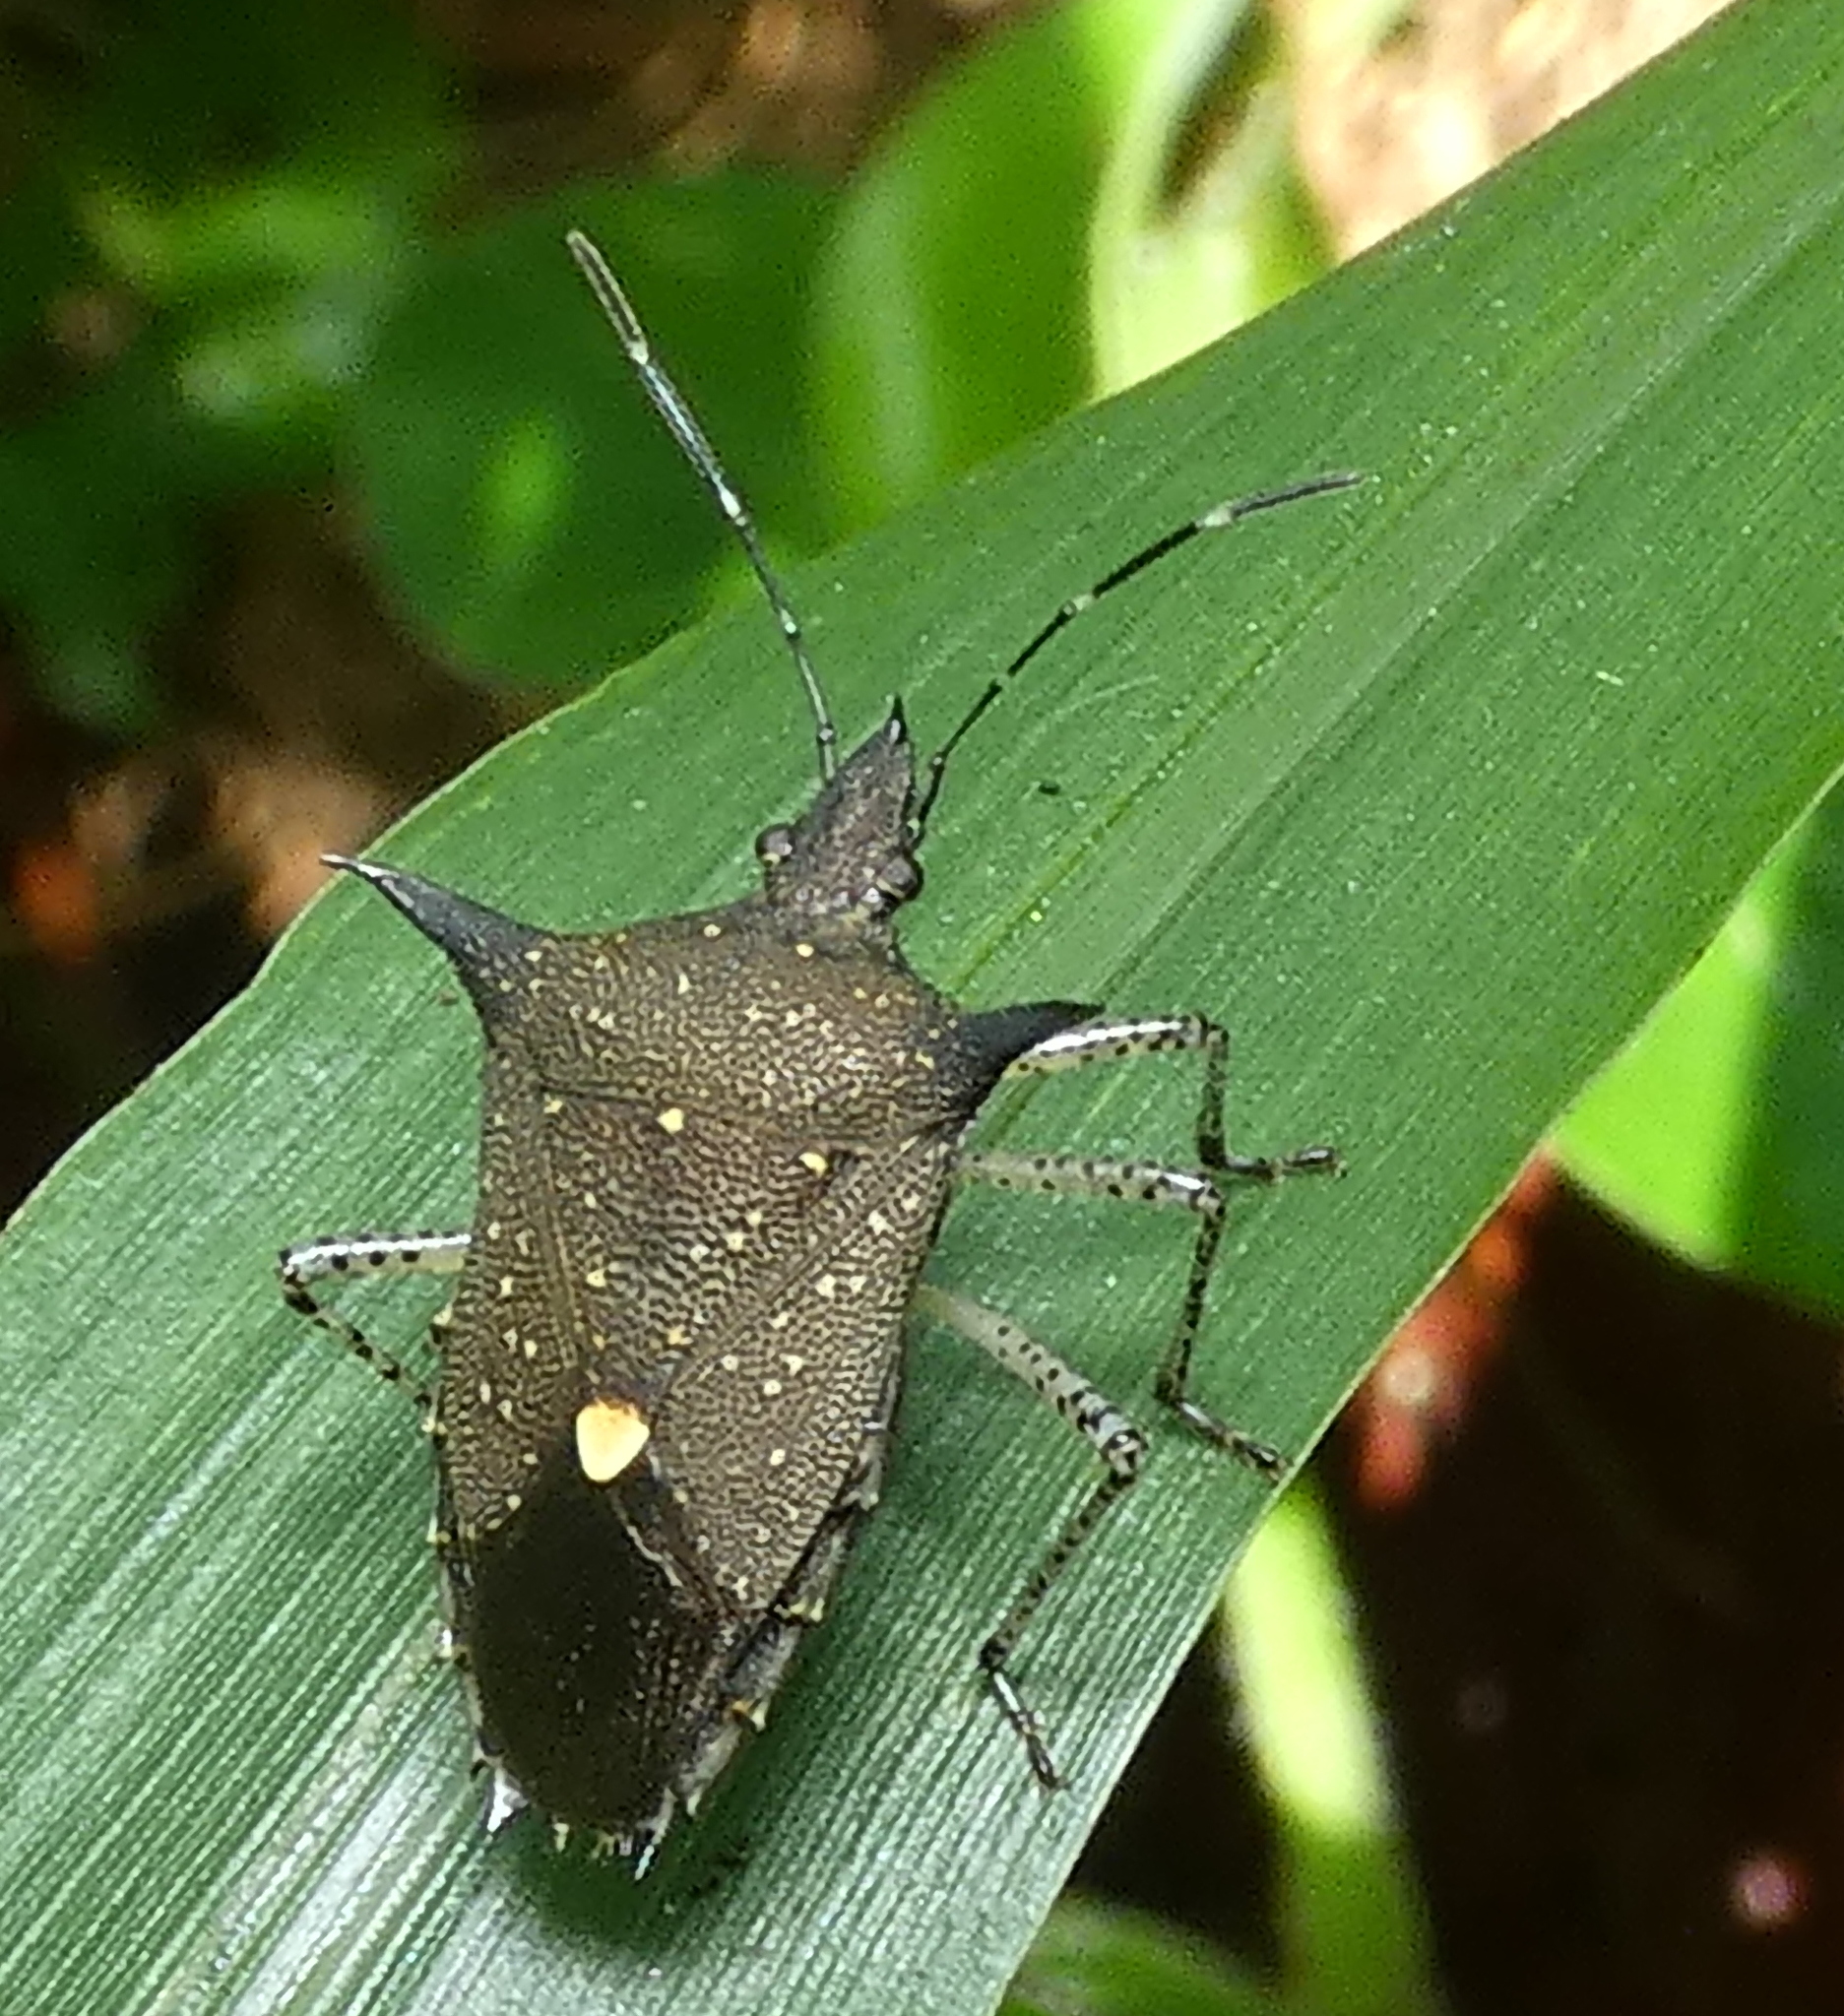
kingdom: Animalia
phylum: Arthropoda
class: Insecta
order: Hemiptera
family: Pentatomidae
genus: Proxys
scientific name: Proxys albopunctulatus
